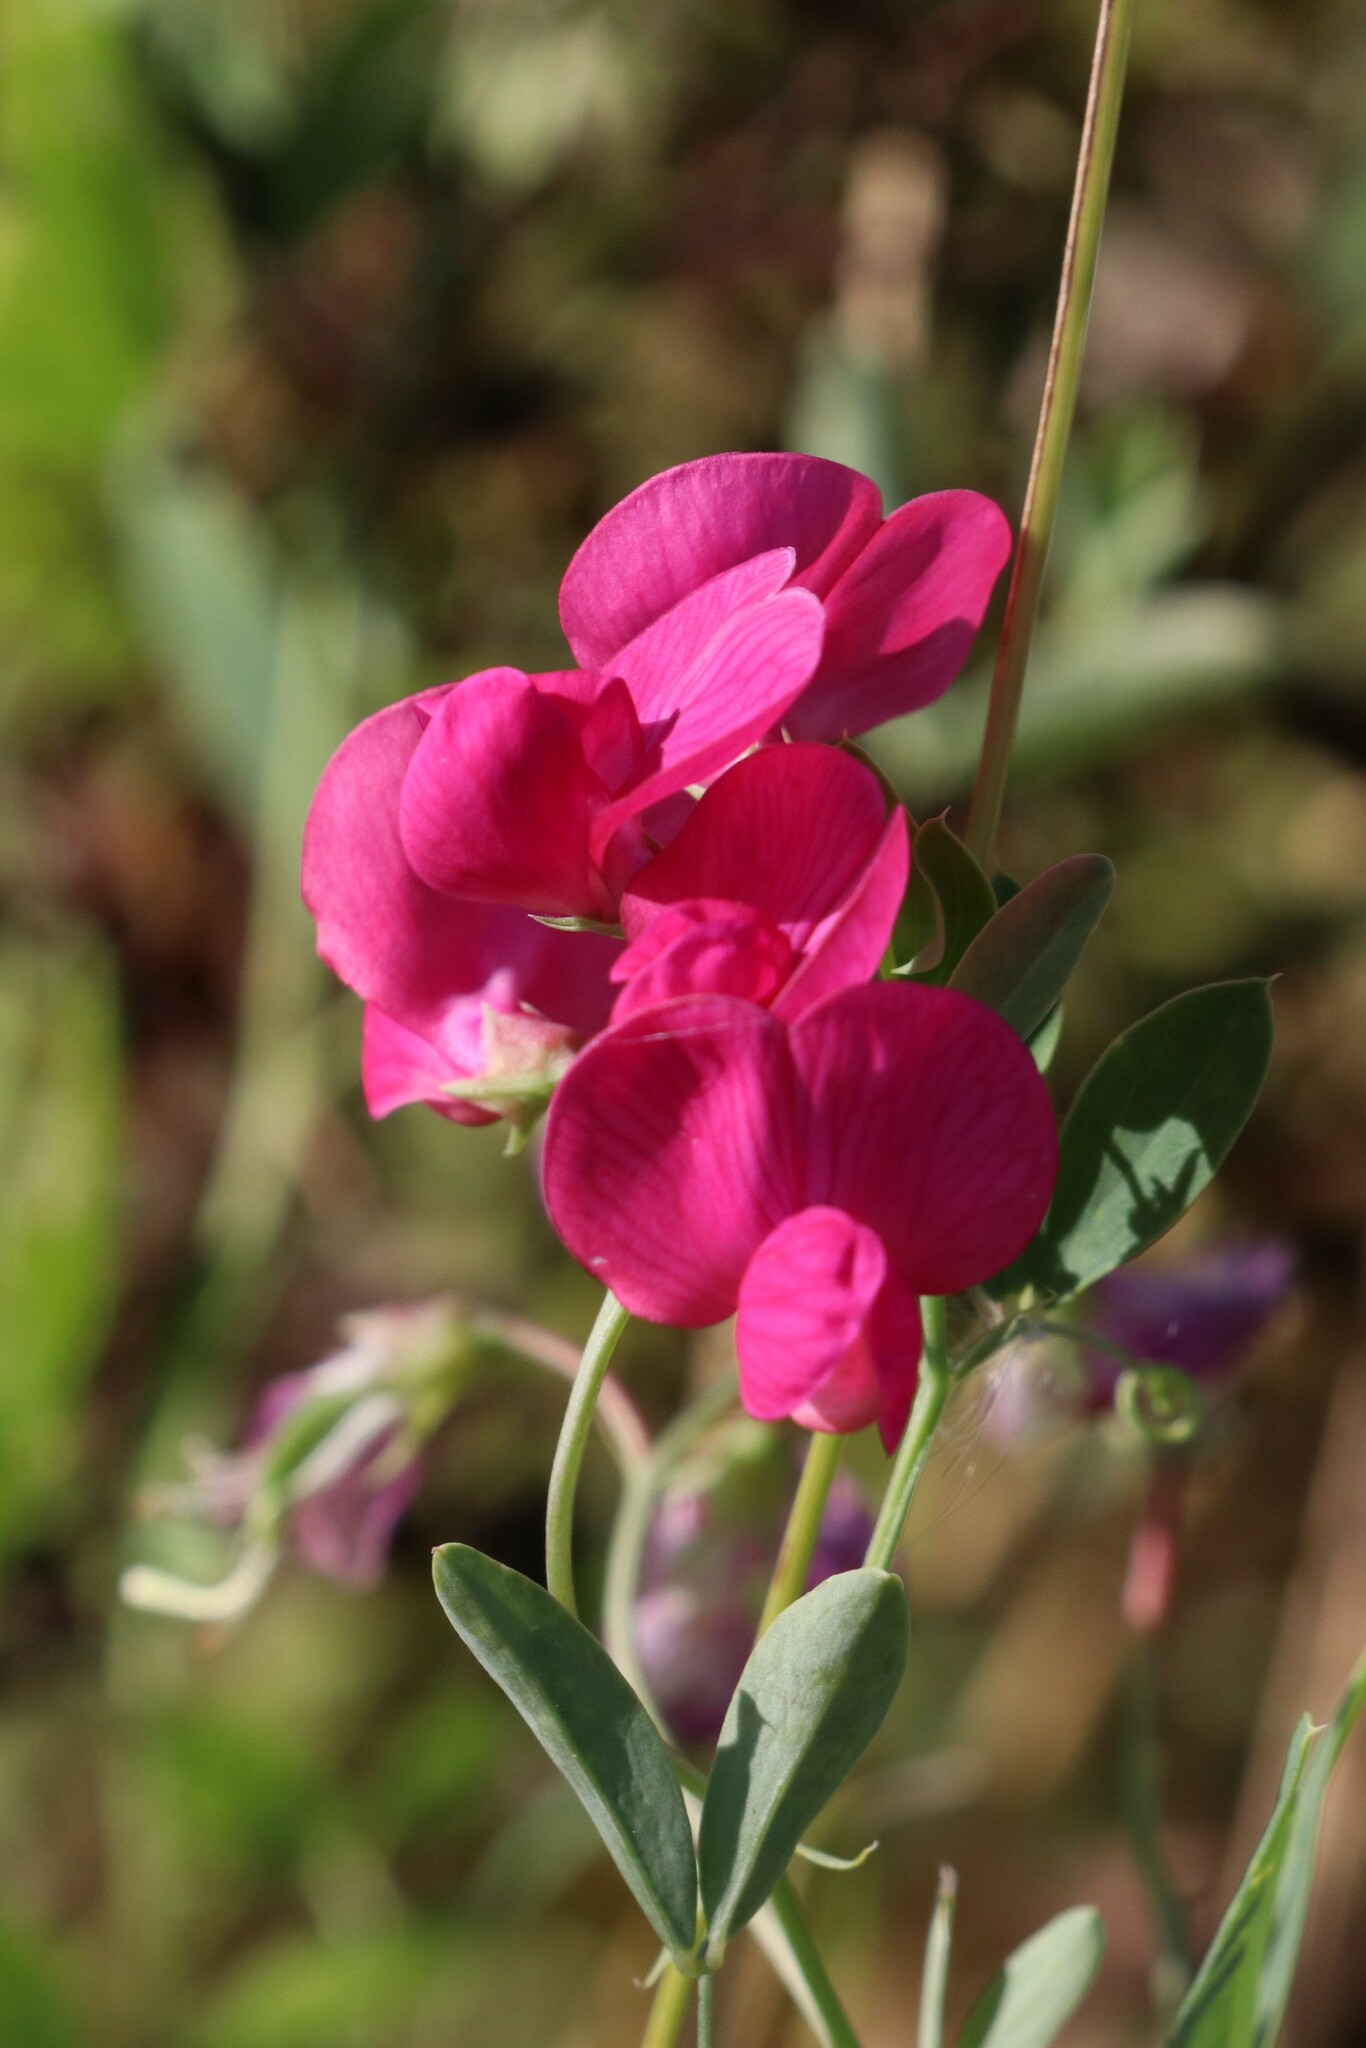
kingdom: Plantae
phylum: Tracheophyta
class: Magnoliopsida
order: Fabales
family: Fabaceae
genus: Lathyrus
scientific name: Lathyrus tuberosus
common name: Tuberous pea
